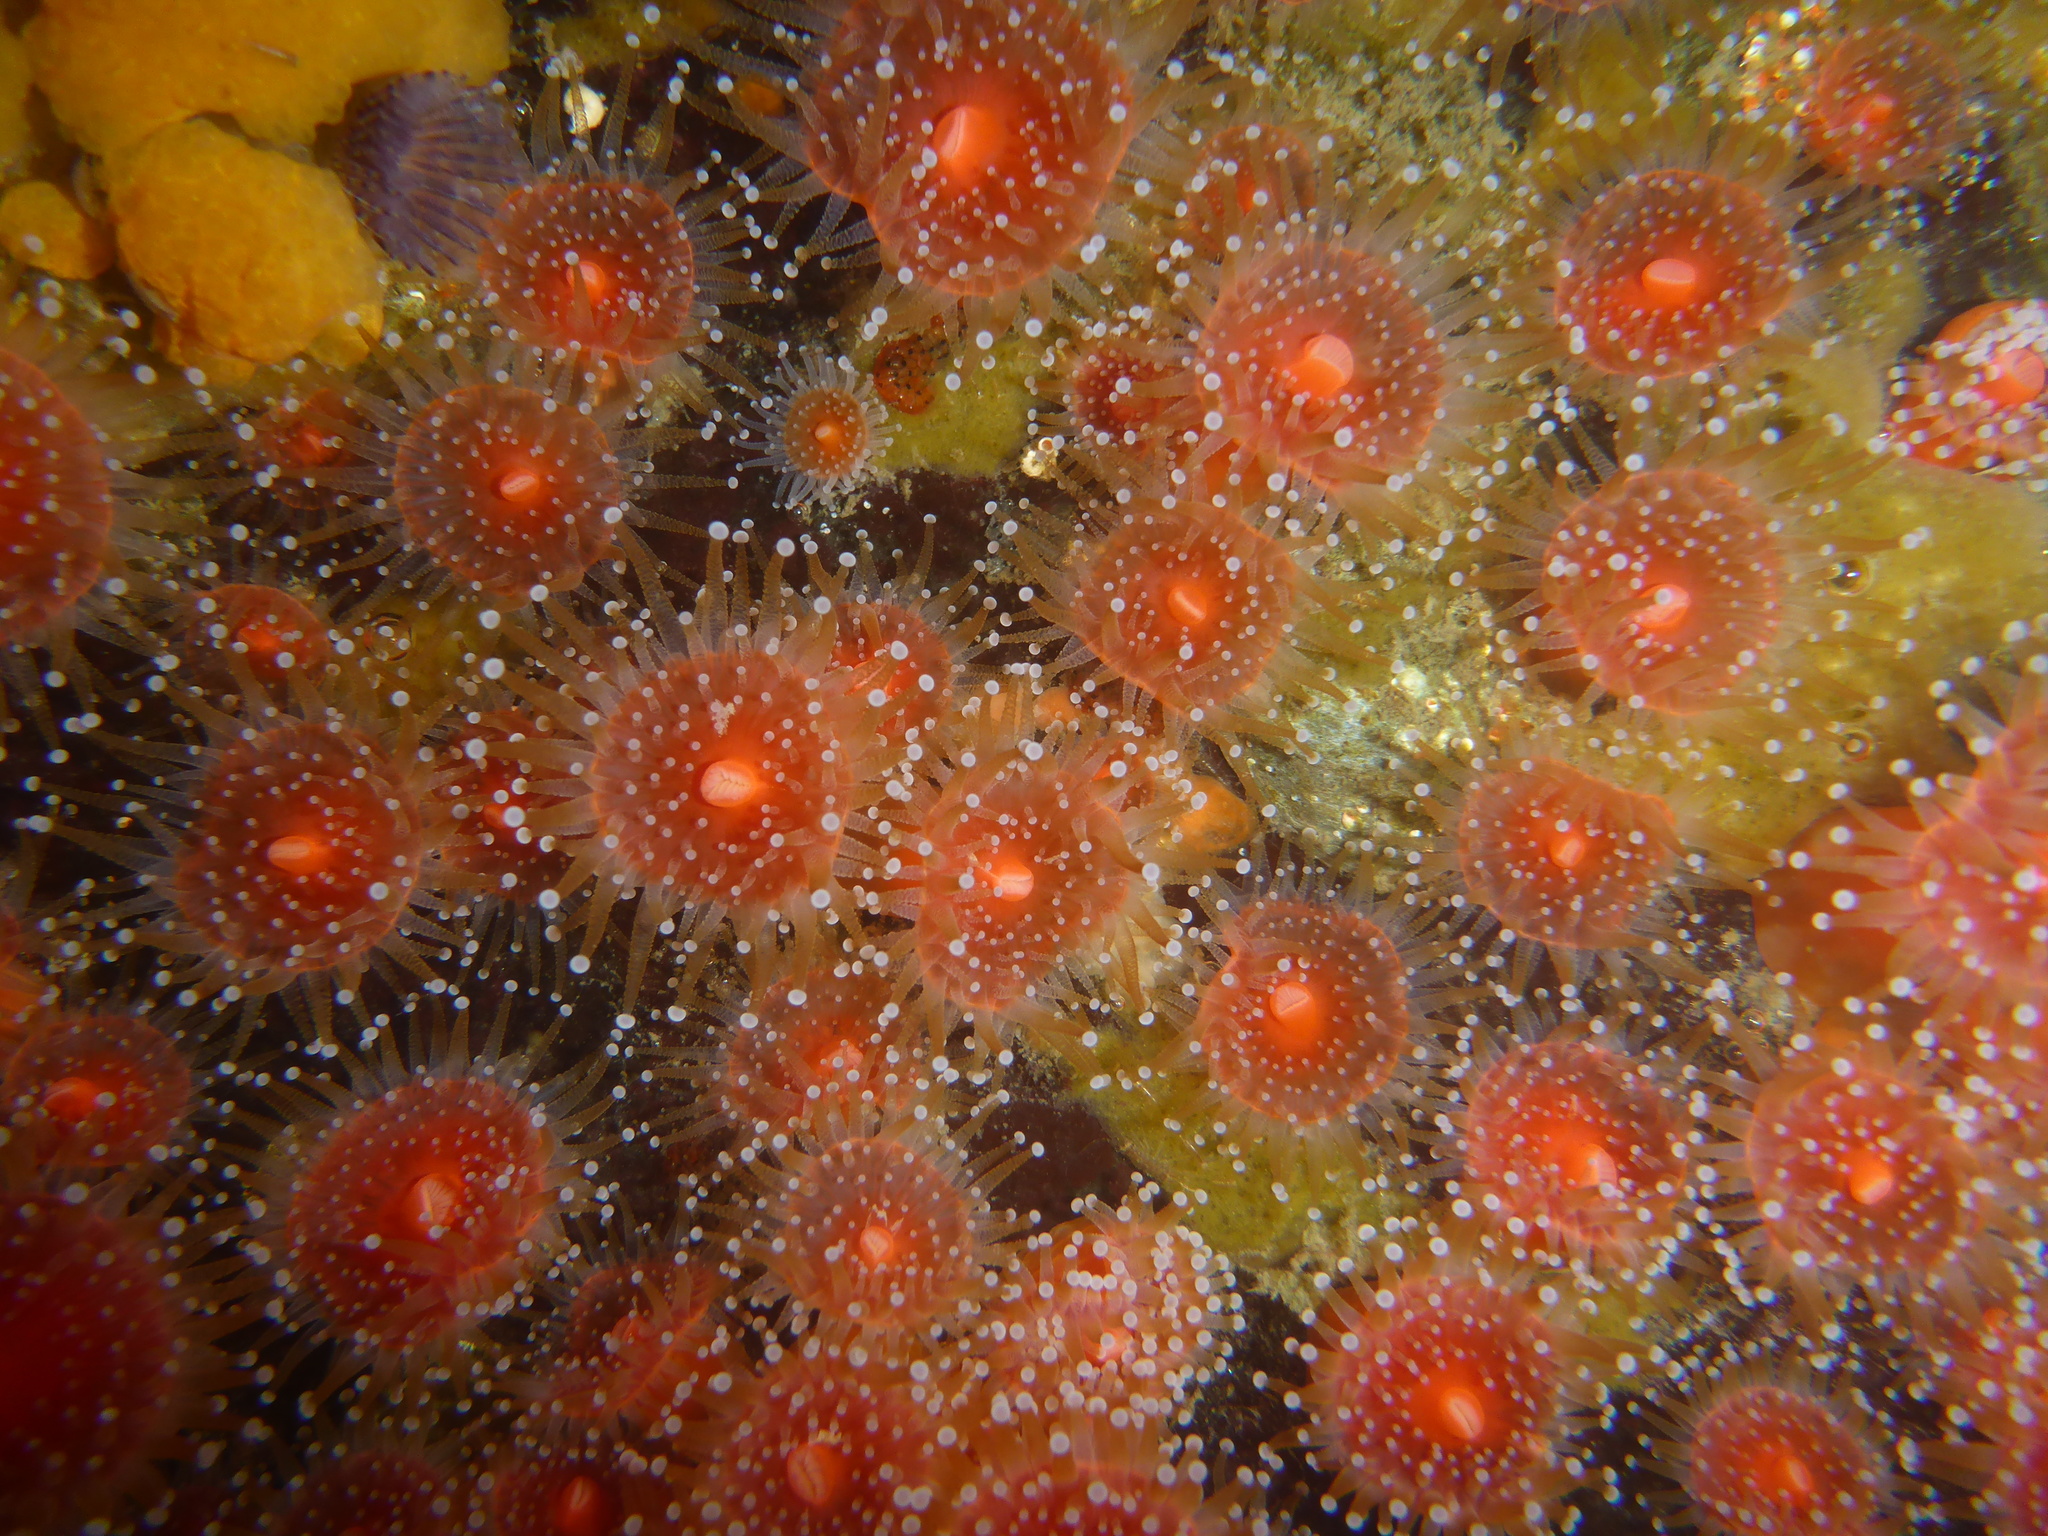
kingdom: Animalia
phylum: Cnidaria
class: Anthozoa
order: Corallimorpharia
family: Corallimorphidae
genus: Corynactis
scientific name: Corynactis californica
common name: Strawberry corallimorpharian
